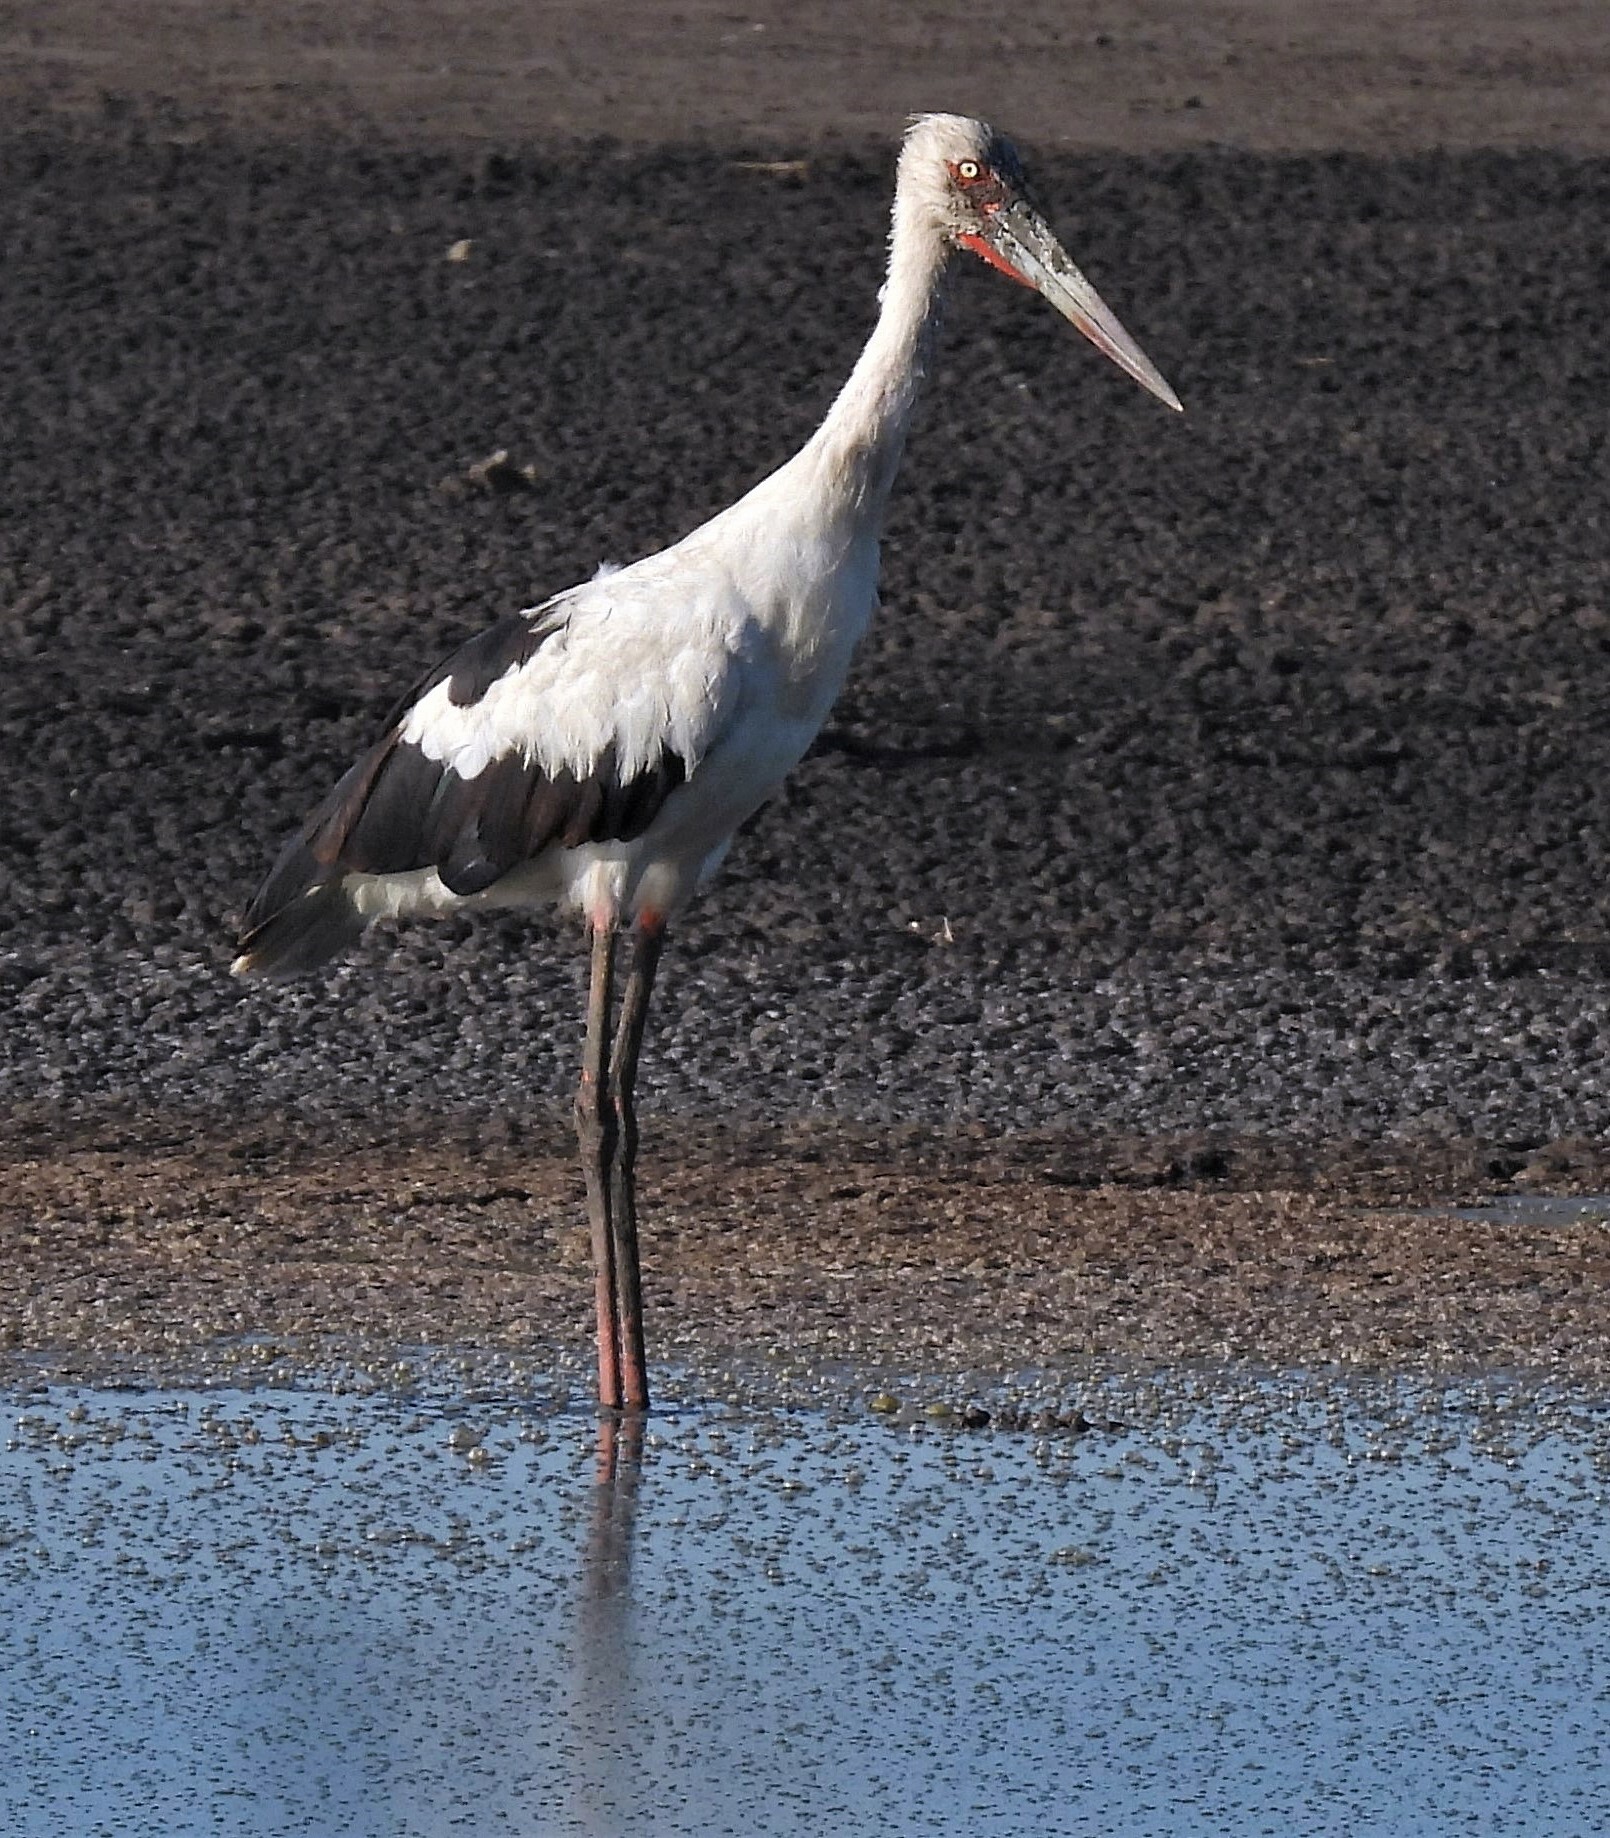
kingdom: Animalia
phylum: Chordata
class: Aves
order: Ciconiiformes
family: Ciconiidae
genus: Ciconia
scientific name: Ciconia maguari
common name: Maguari stork
